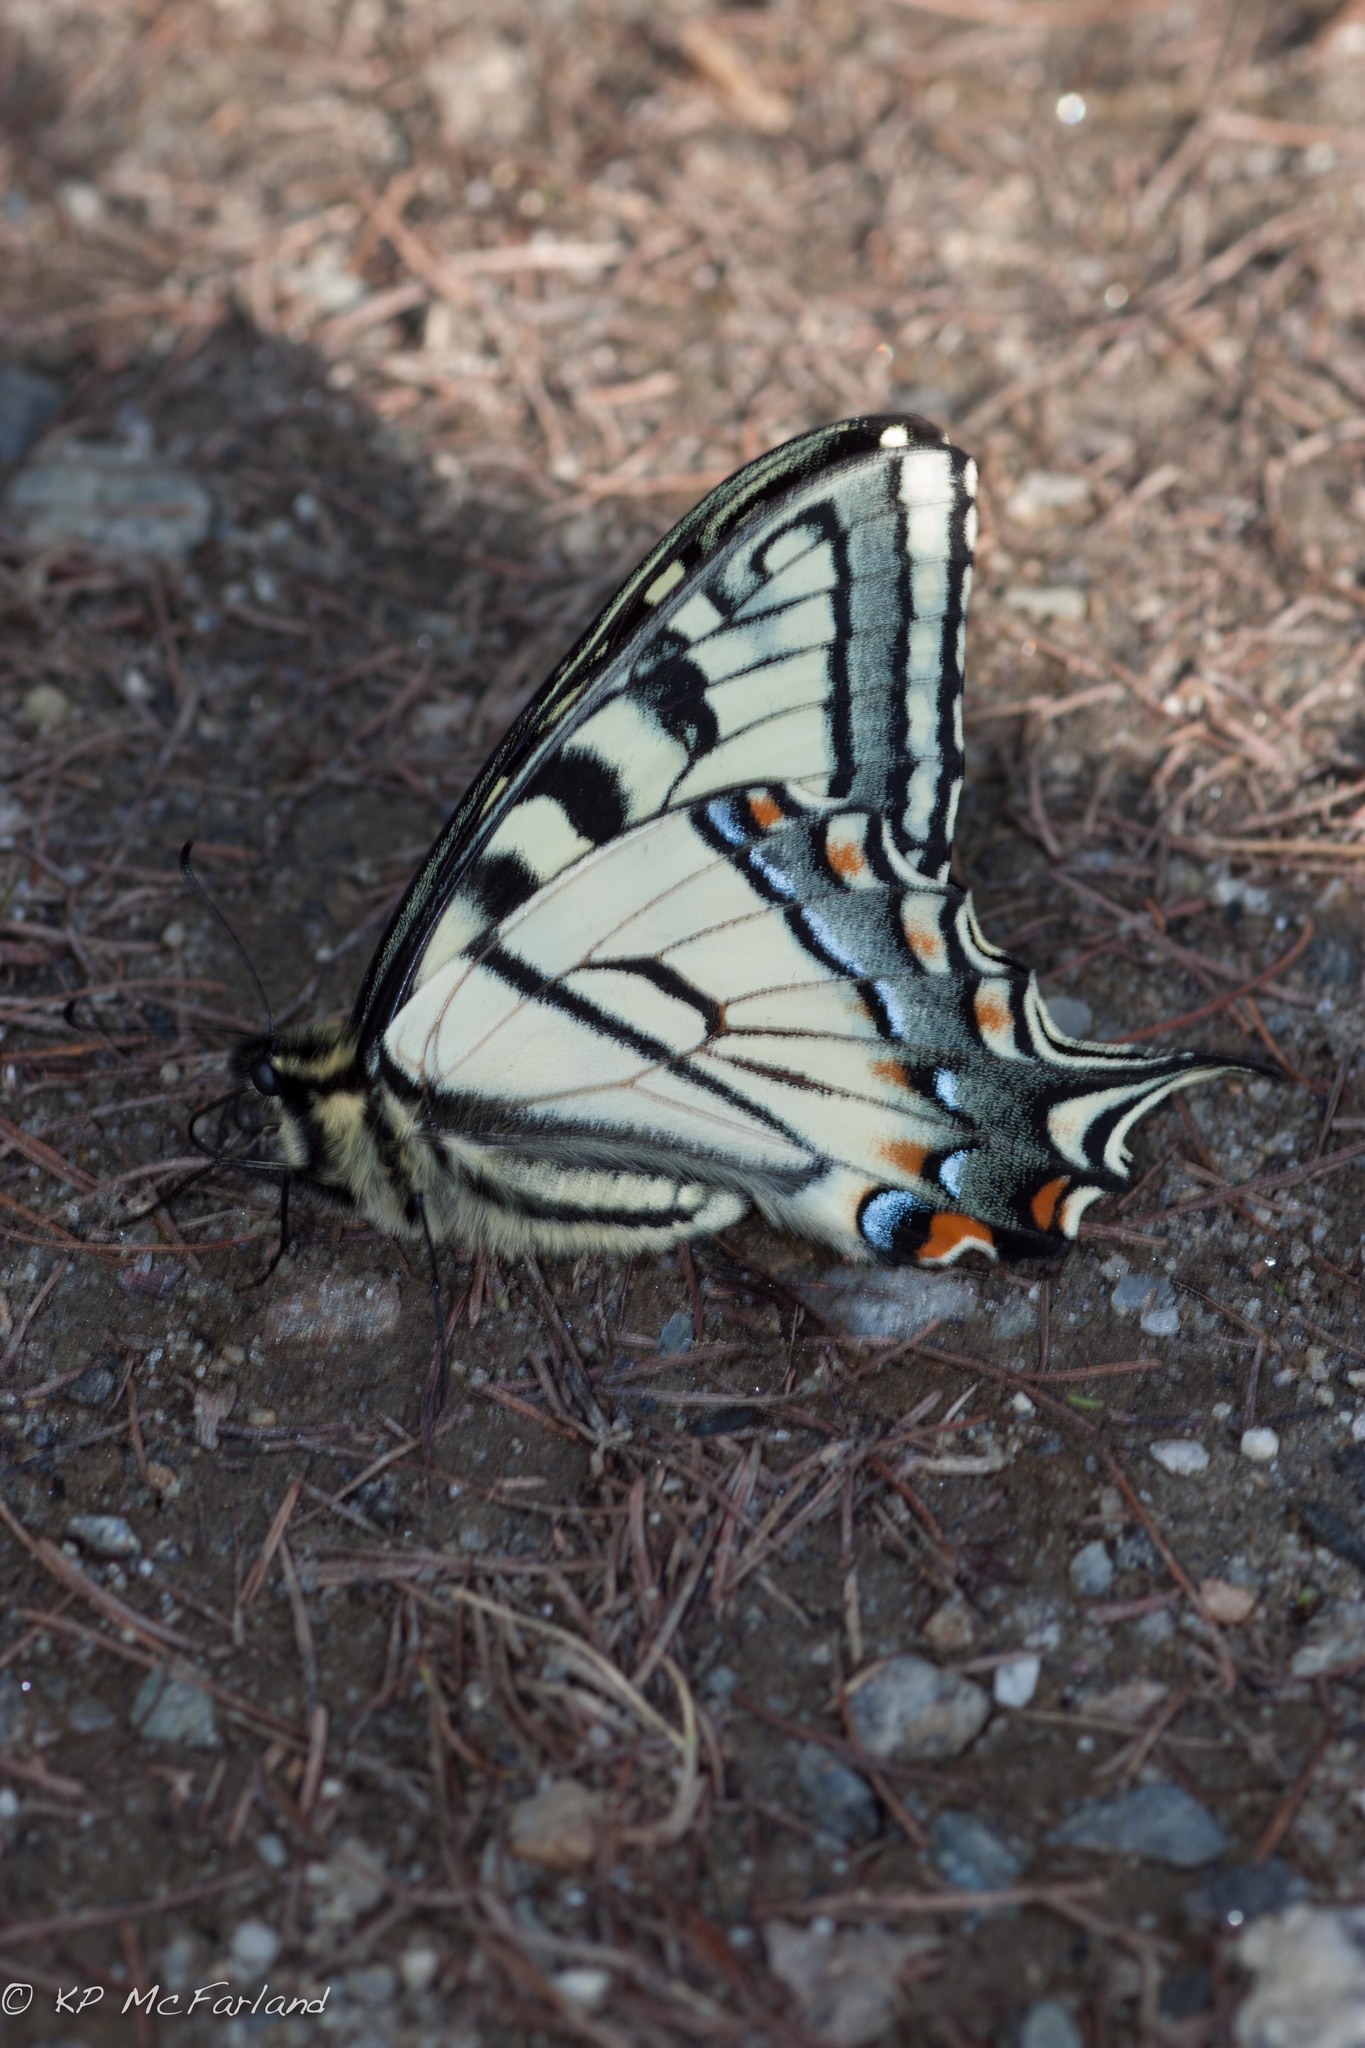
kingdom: Animalia
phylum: Arthropoda
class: Insecta
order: Lepidoptera
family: Papilionidae
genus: Papilio
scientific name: Papilio canadensis
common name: Canadian tiger swallowtail
